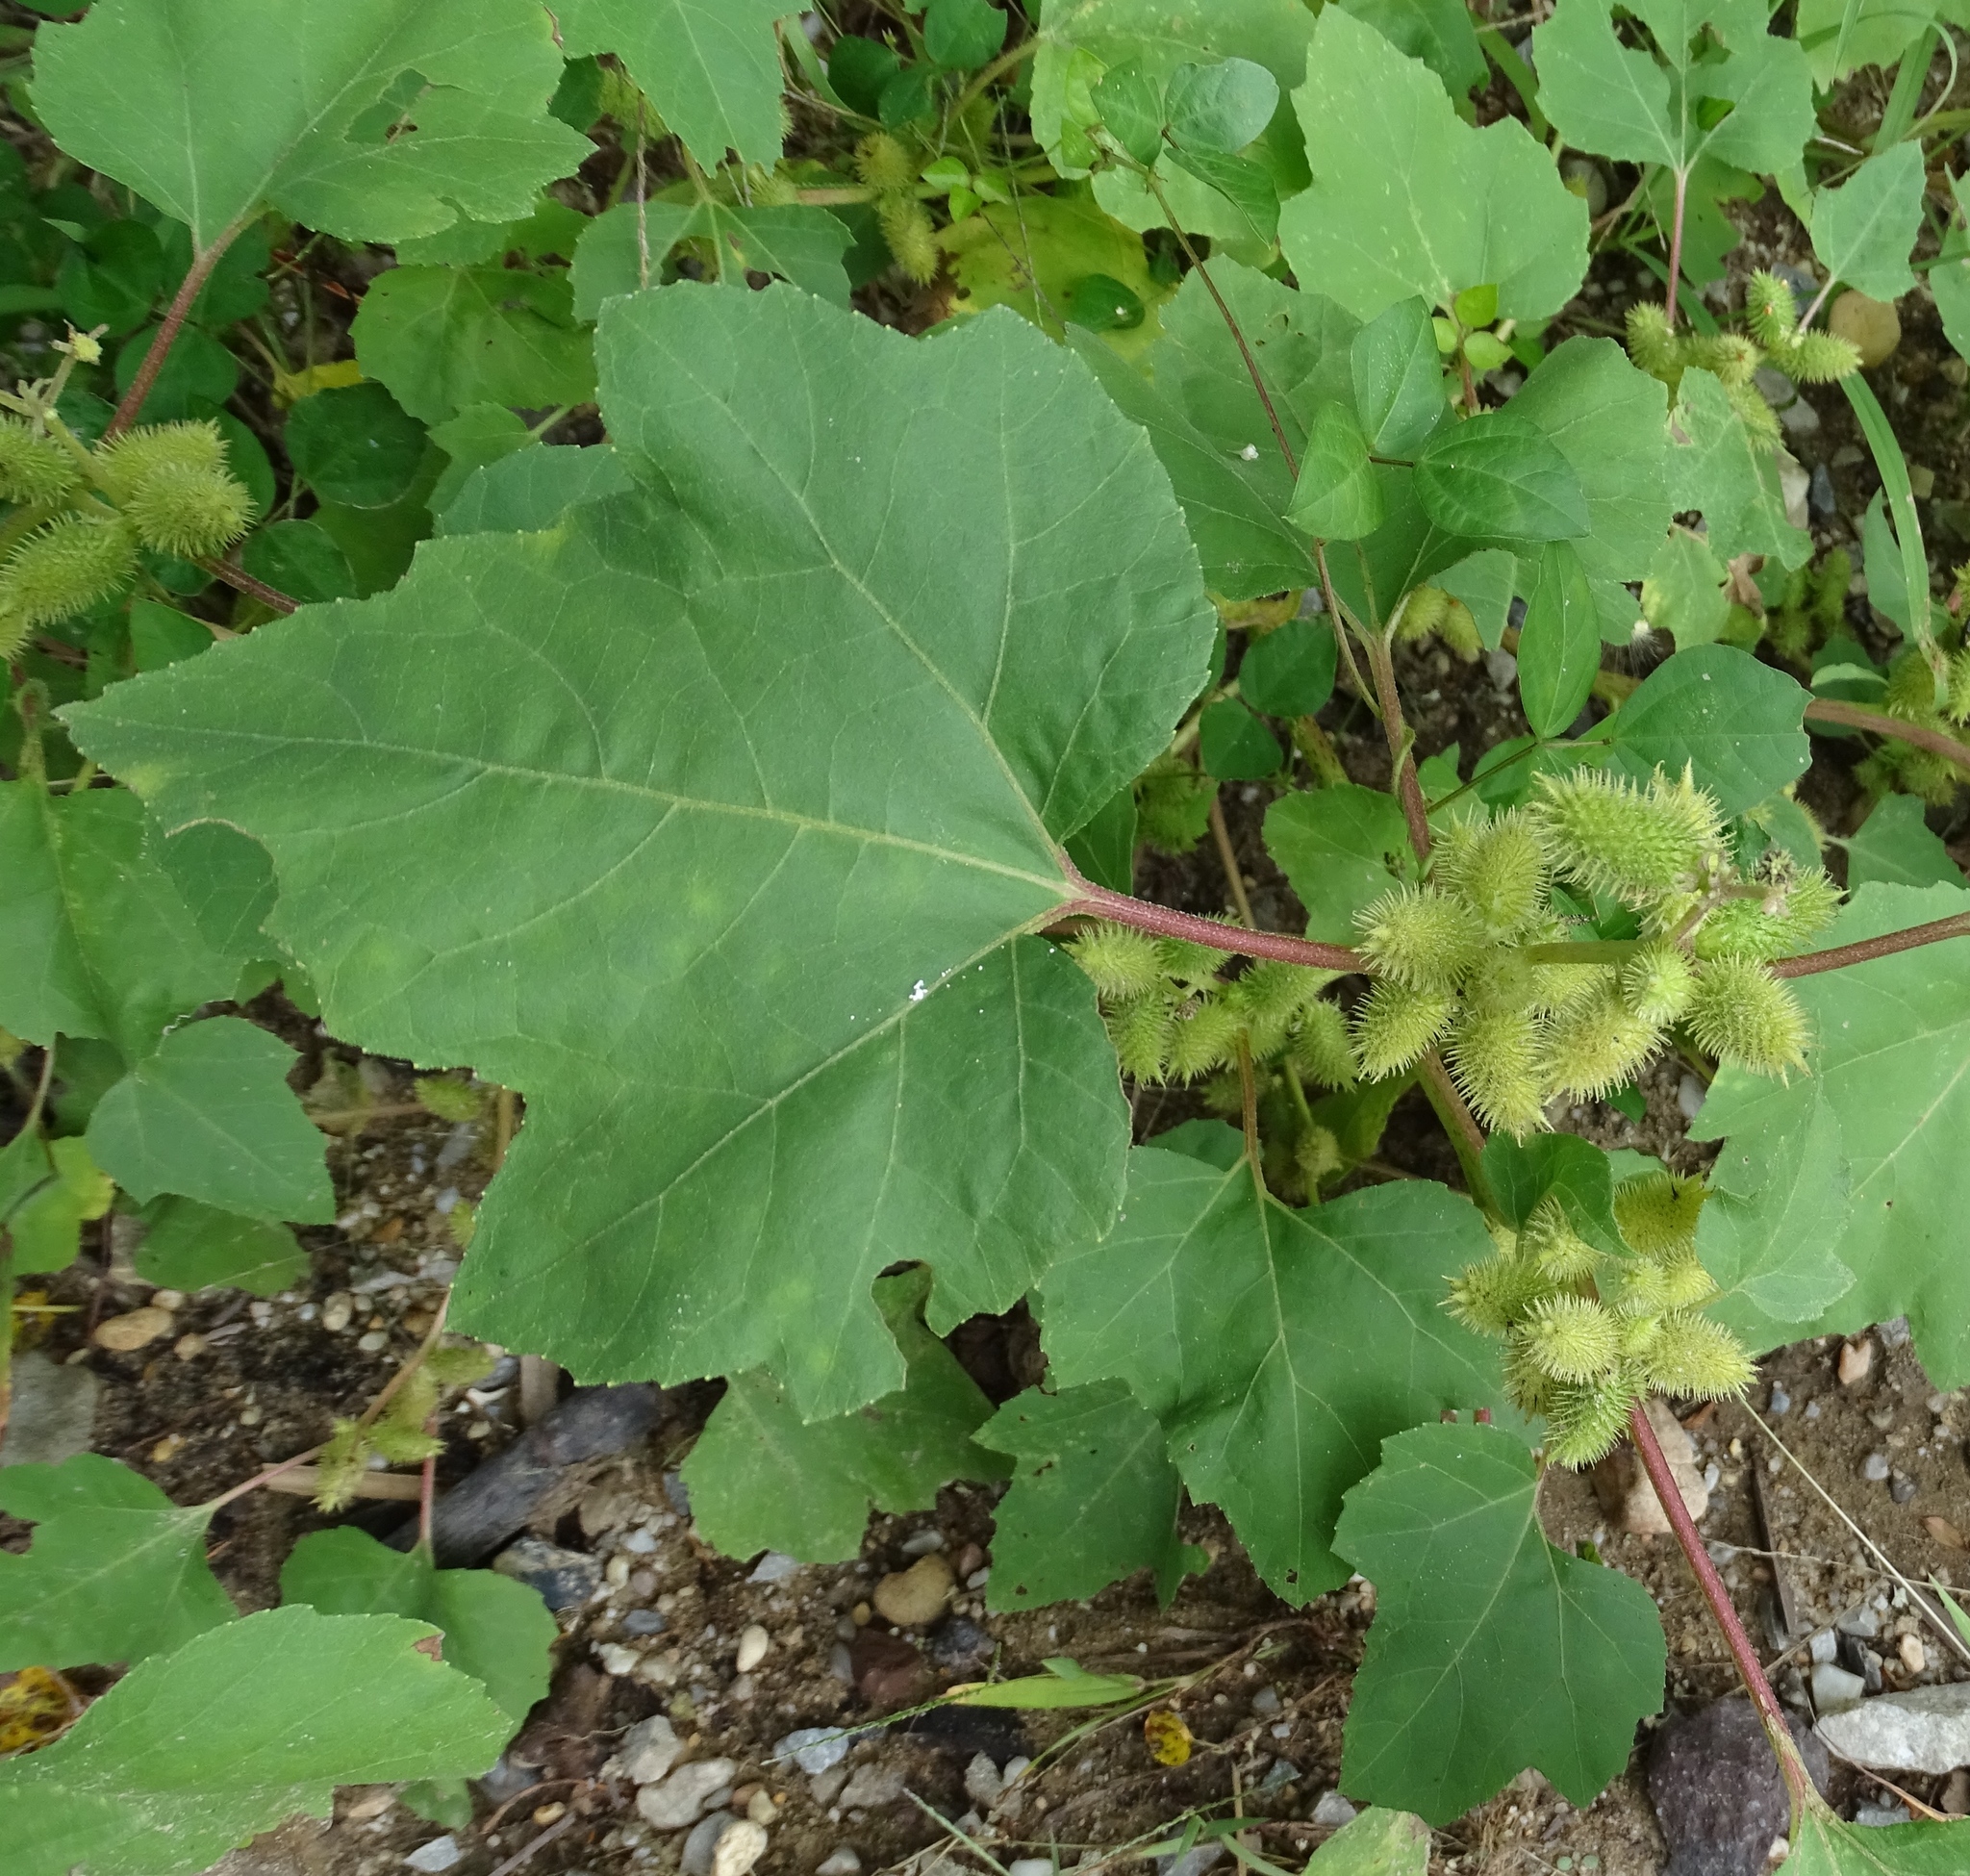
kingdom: Plantae
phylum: Tracheophyta
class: Magnoliopsida
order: Asterales
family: Asteraceae
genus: Xanthium
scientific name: Xanthium strumarium
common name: Rough cocklebur
